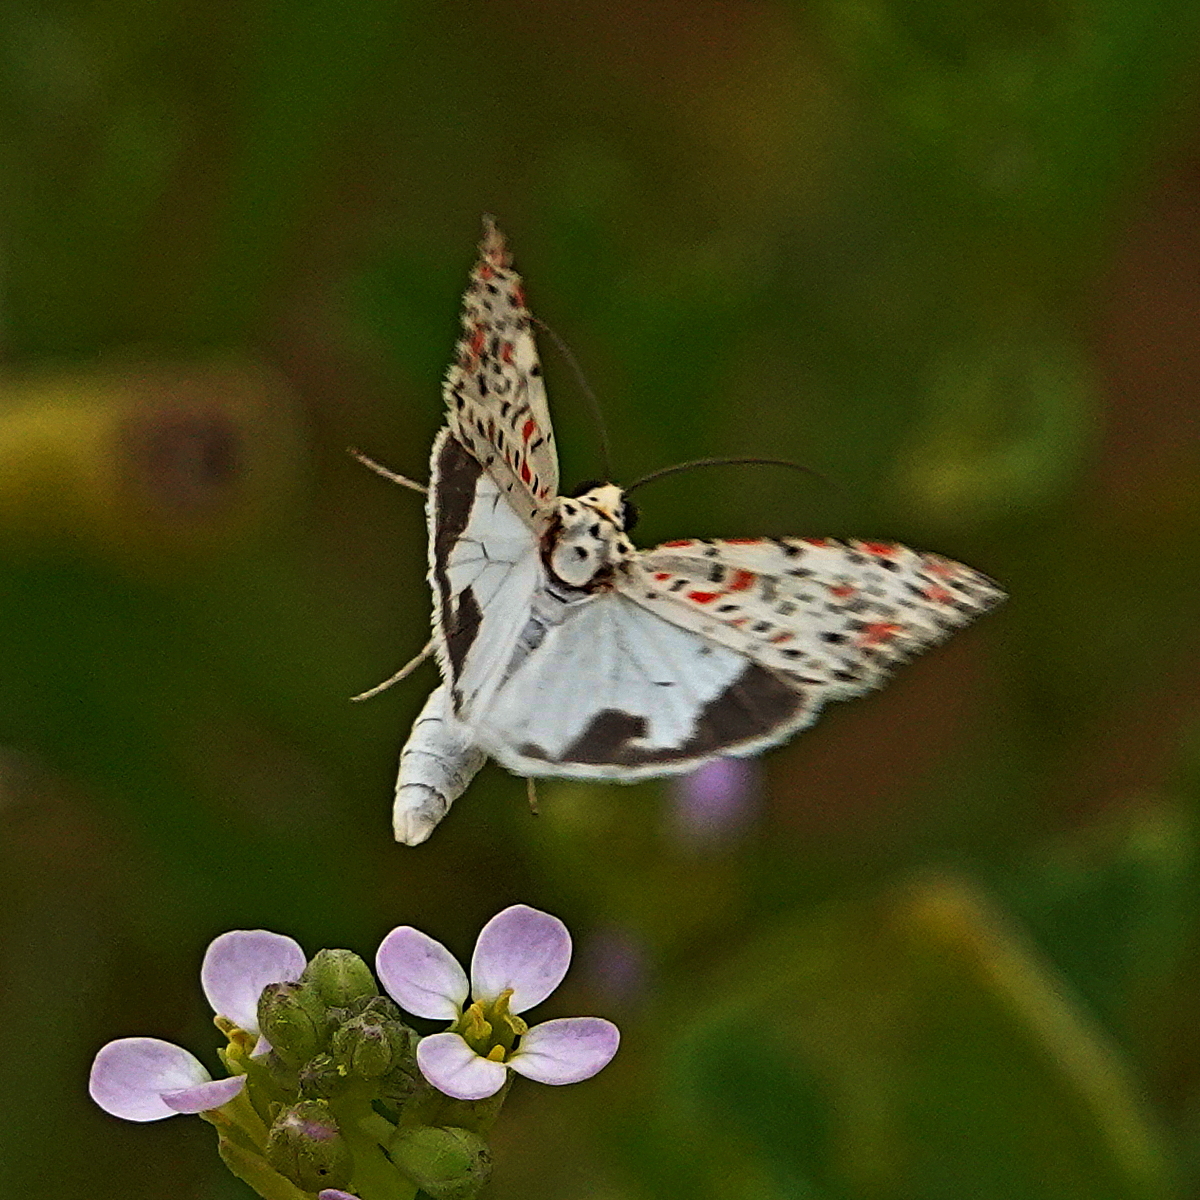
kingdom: Animalia
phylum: Arthropoda
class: Insecta
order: Lepidoptera
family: Erebidae
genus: Utetheisa
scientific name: Utetheisa pulchelloides
